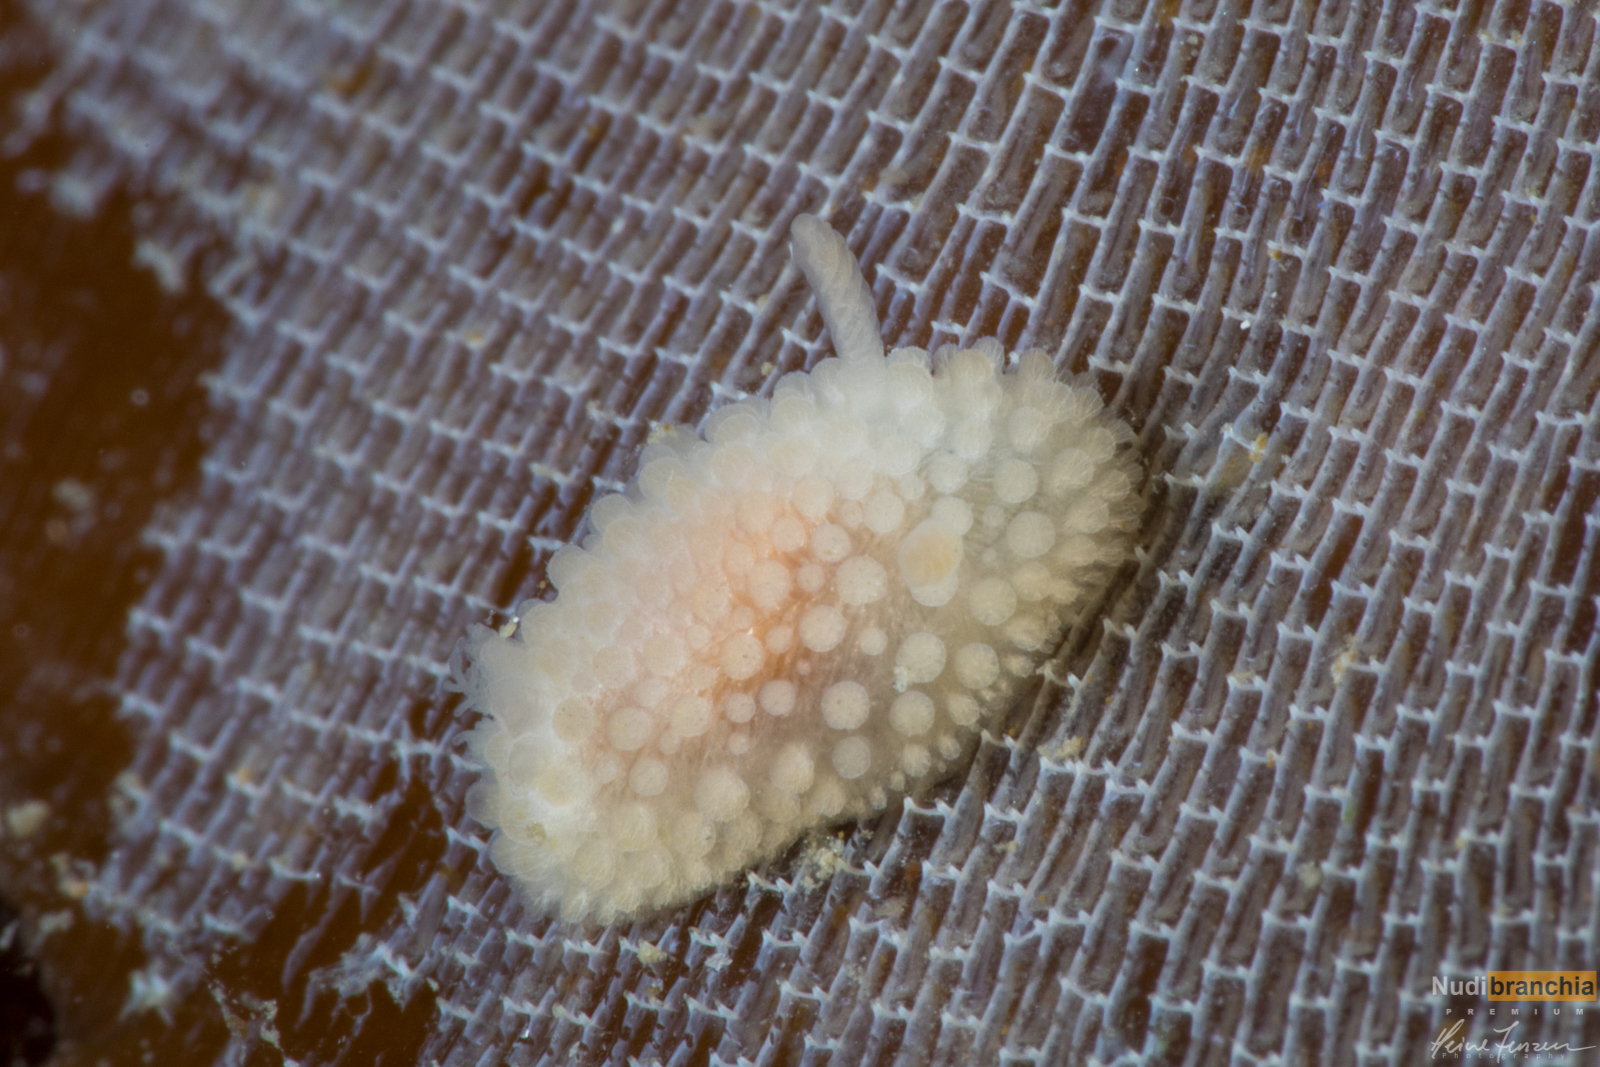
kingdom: Animalia
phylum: Mollusca
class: Gastropoda
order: Nudibranchia
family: Onchidorididae
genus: Onchidoris
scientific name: Onchidoris muricata
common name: Rough doris
